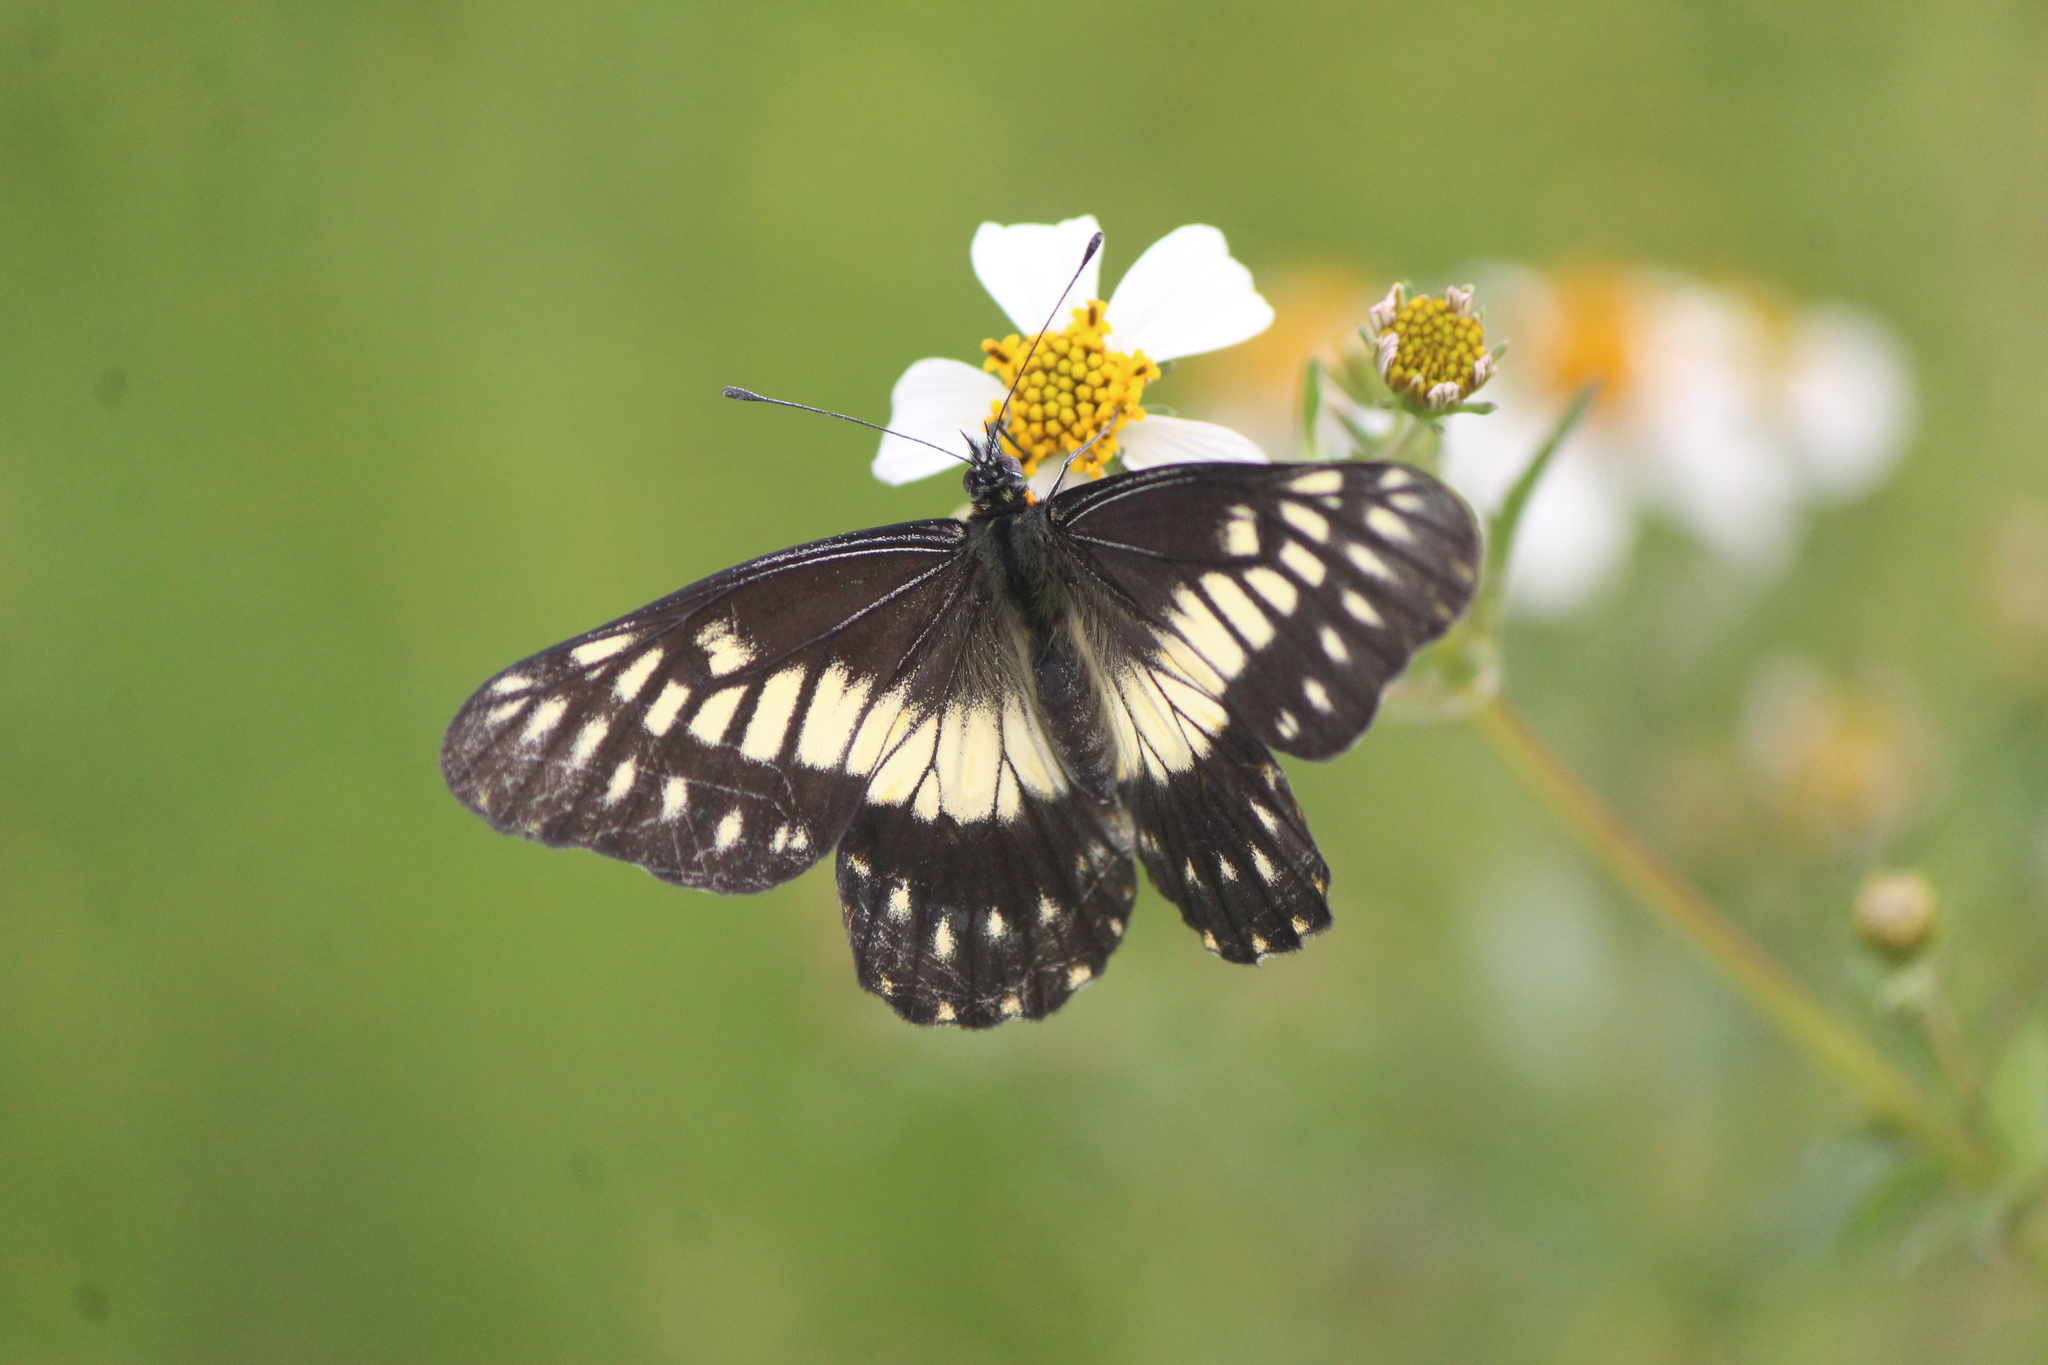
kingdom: Animalia
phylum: Arthropoda
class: Insecta
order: Lepidoptera
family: Pieridae
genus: Archonias
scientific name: Archonias nimbice
